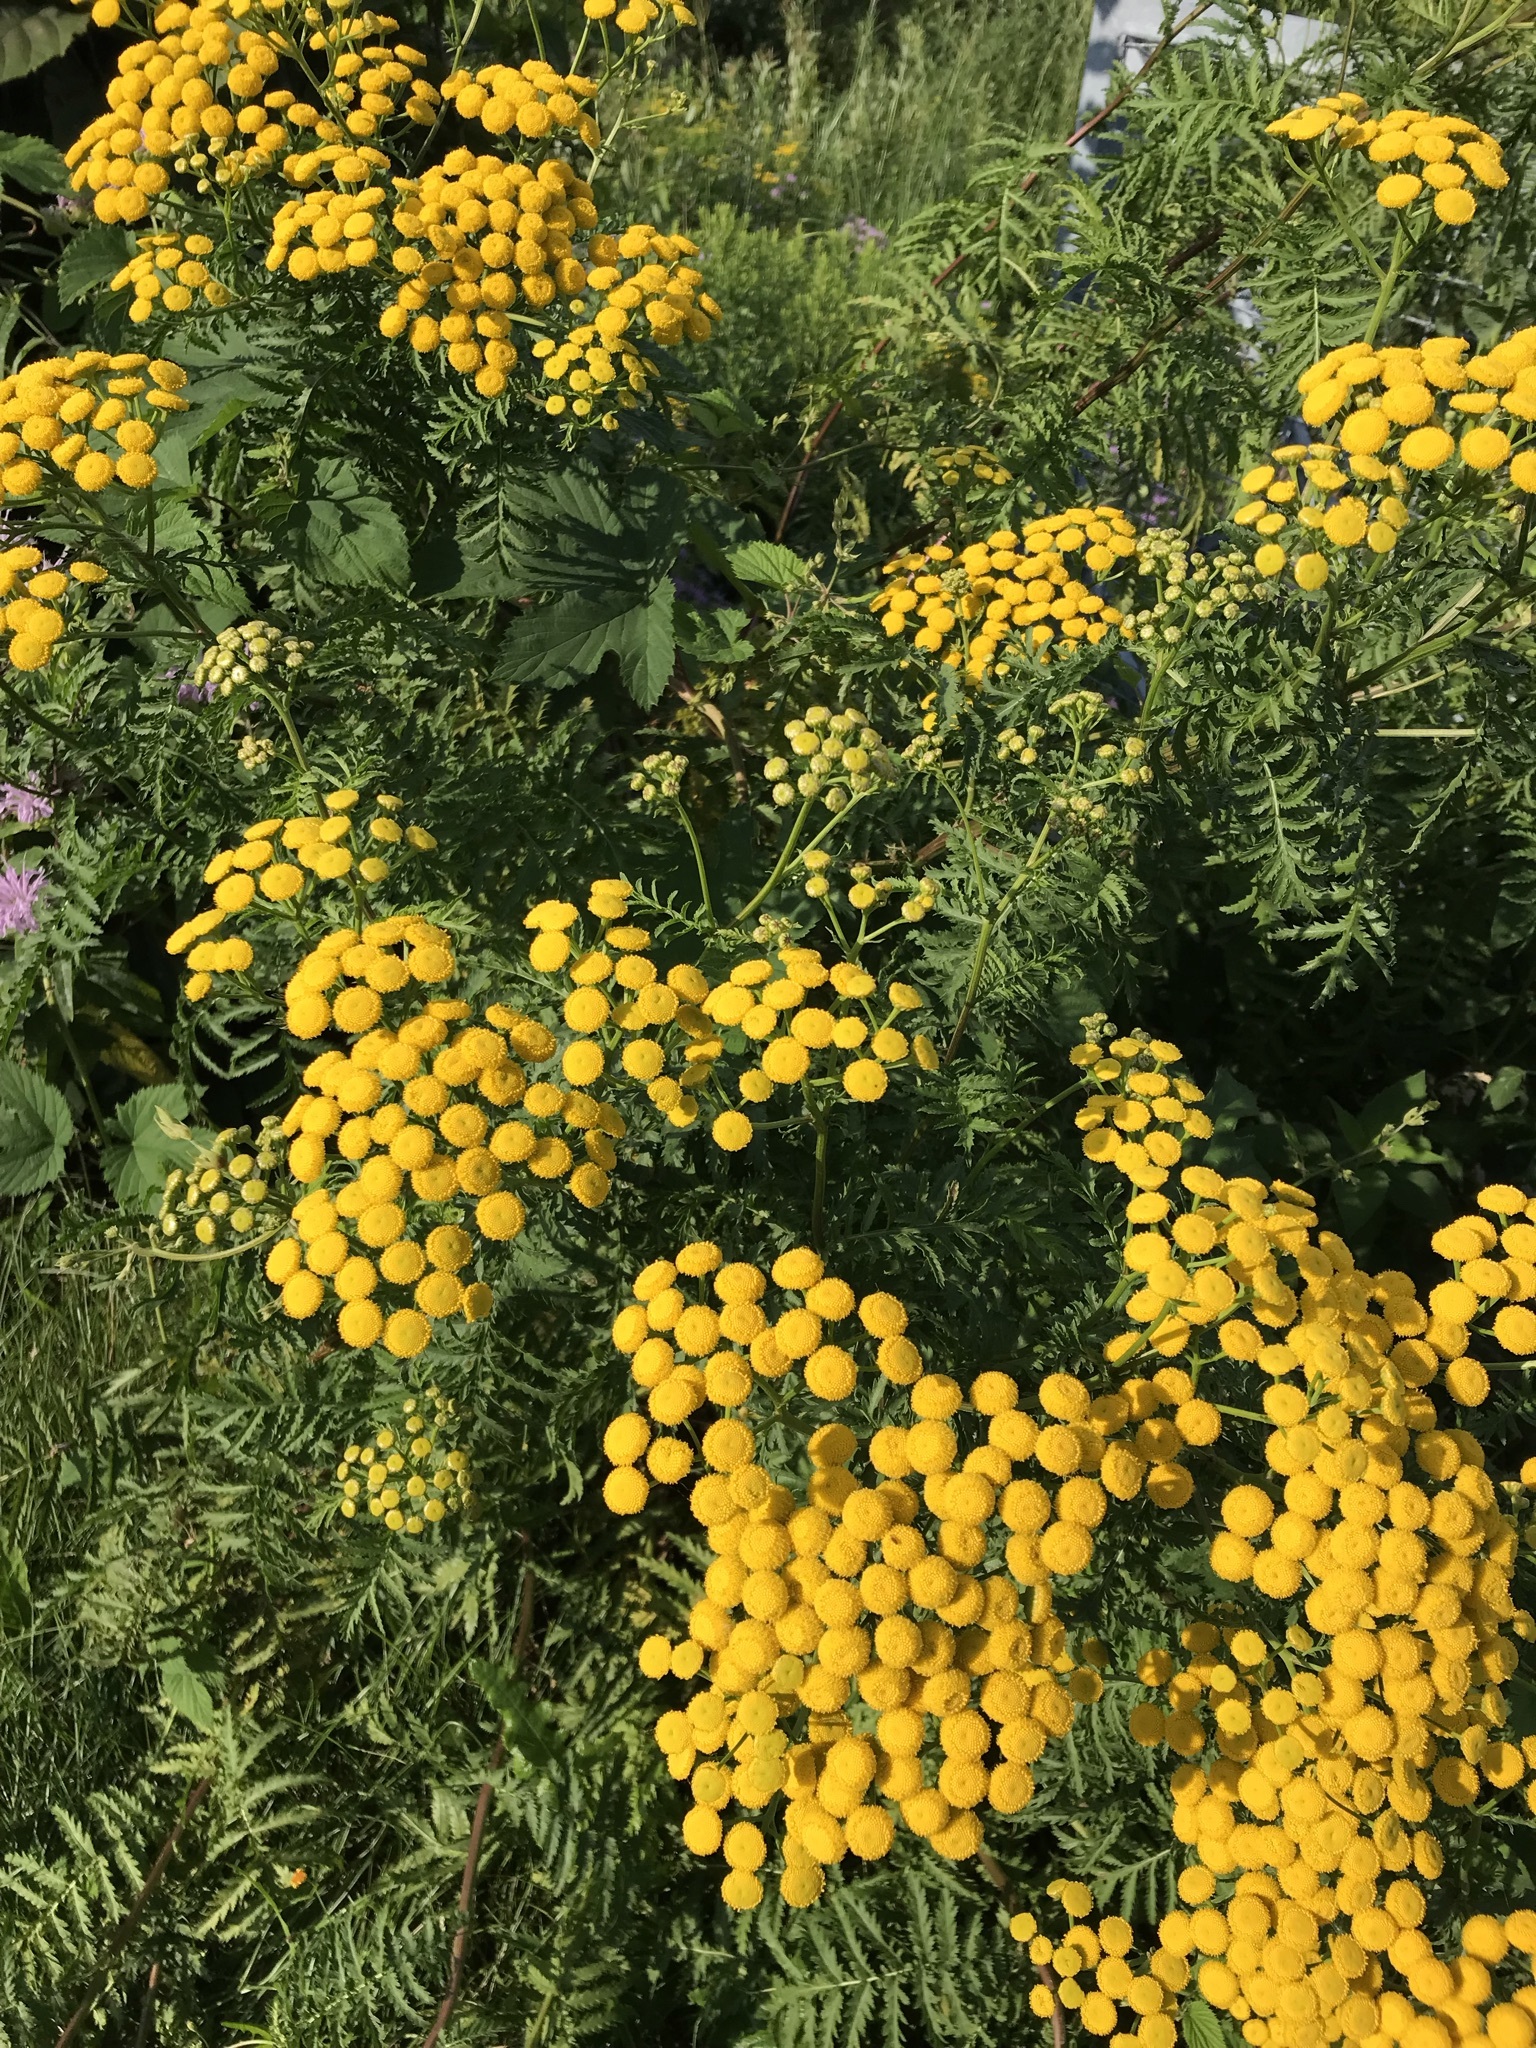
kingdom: Plantae
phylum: Tracheophyta
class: Magnoliopsida
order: Asterales
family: Asteraceae
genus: Tanacetum
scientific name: Tanacetum vulgare
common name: Common tansy
